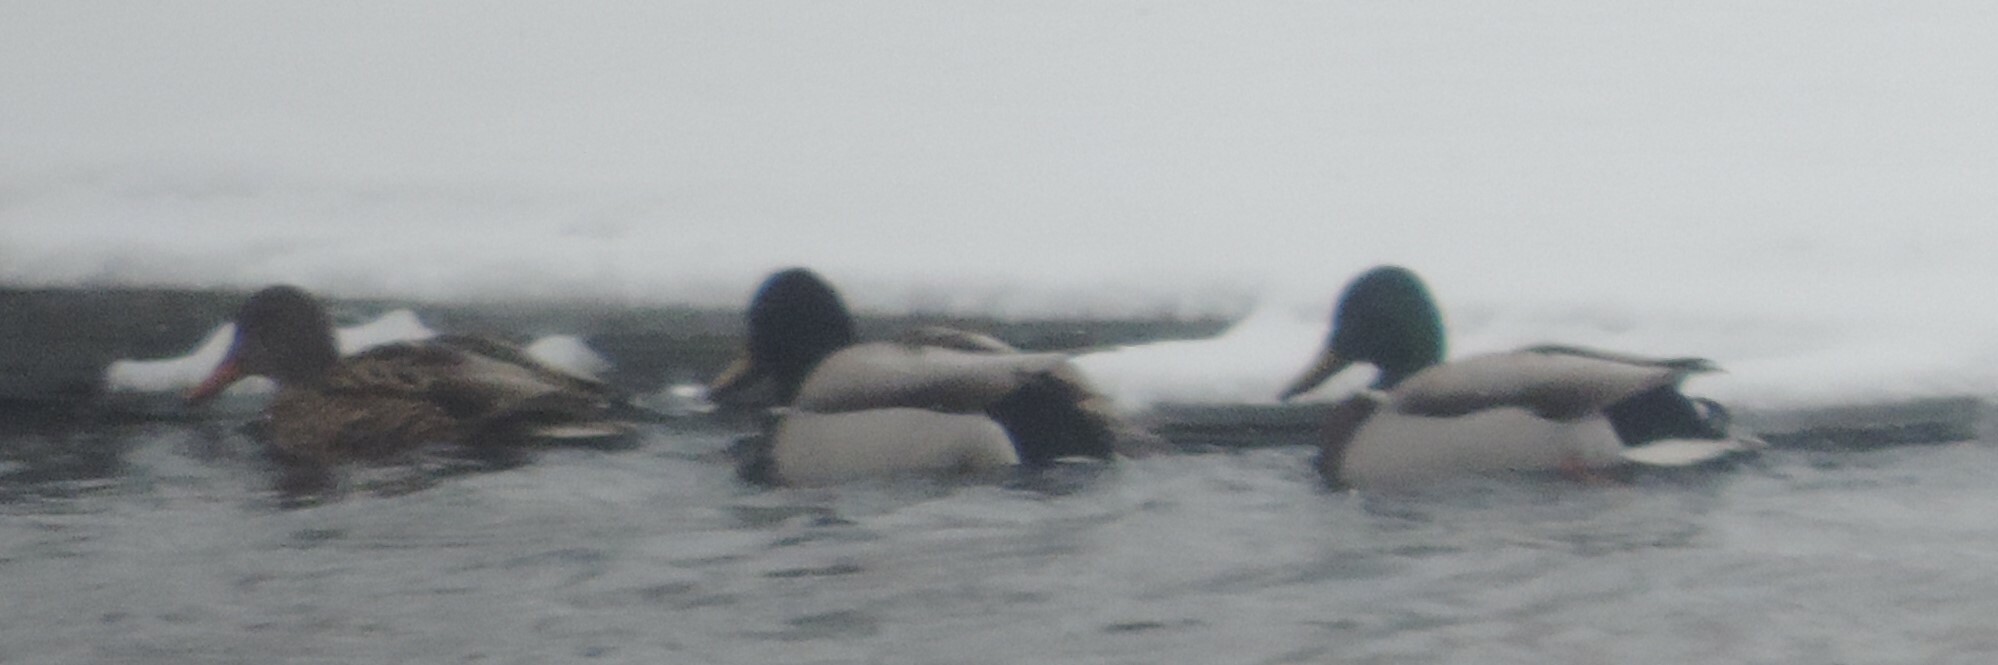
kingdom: Animalia
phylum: Chordata
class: Aves
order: Anseriformes
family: Anatidae
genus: Anas
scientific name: Anas platyrhynchos
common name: Mallard
